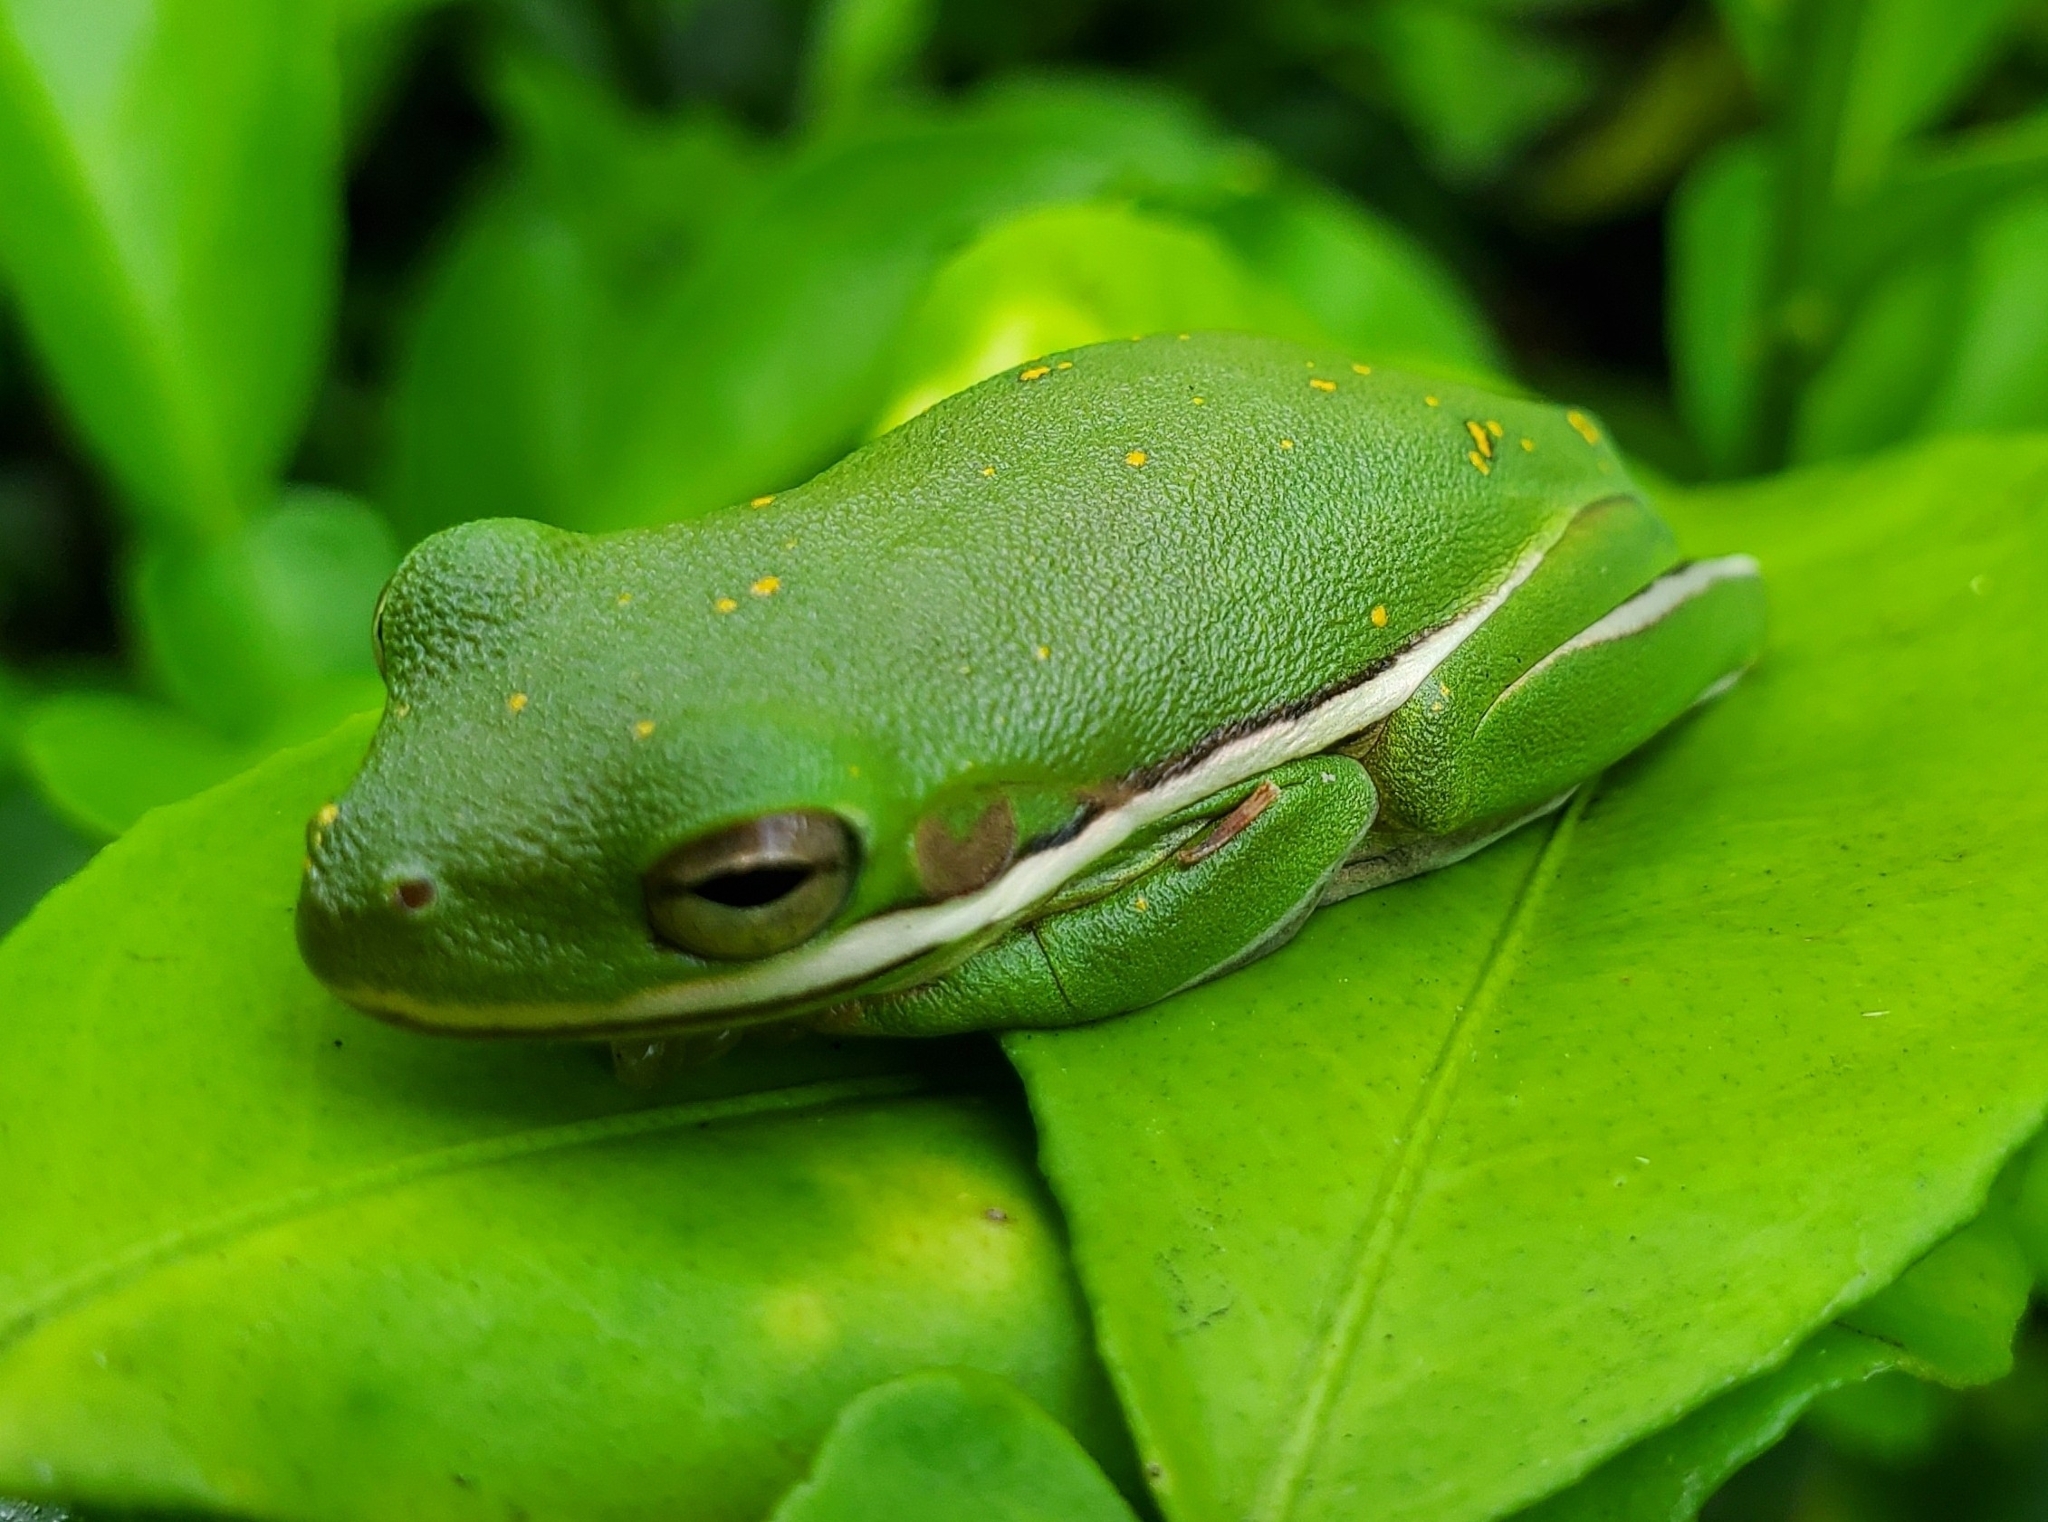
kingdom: Animalia
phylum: Chordata
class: Amphibia
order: Anura
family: Hylidae
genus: Dryophytes
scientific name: Dryophytes cinereus
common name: Green treefrog
